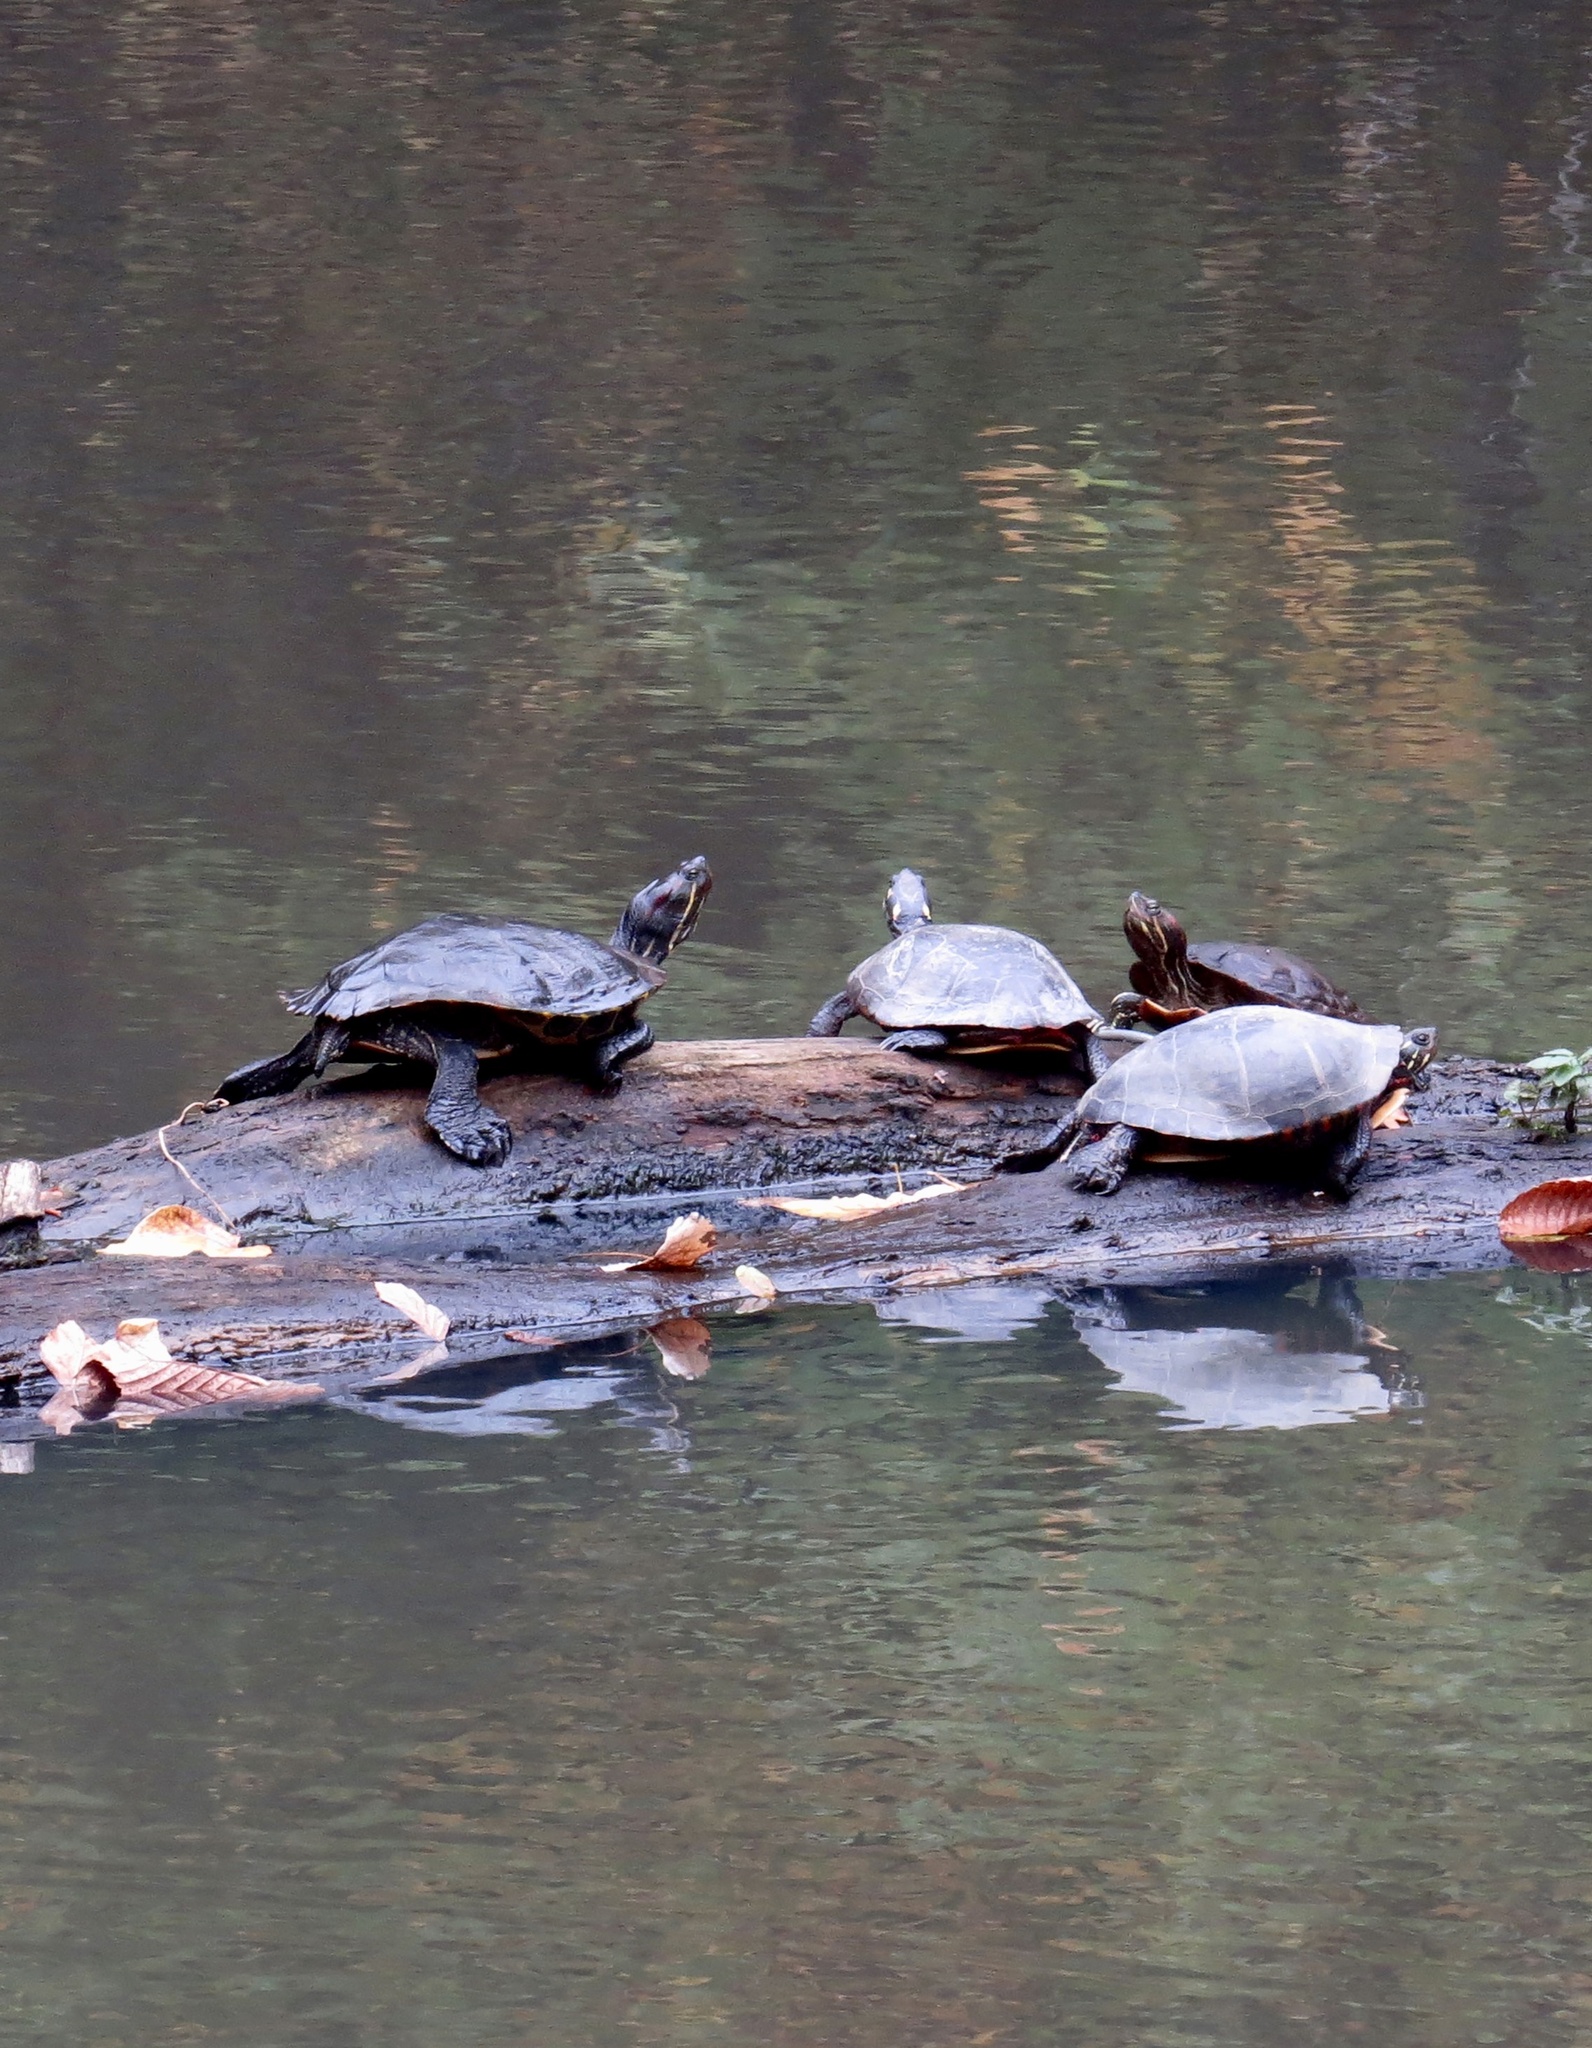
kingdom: Animalia
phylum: Chordata
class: Testudines
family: Emydidae
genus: Chrysemys
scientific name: Chrysemys picta
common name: Painted turtle
